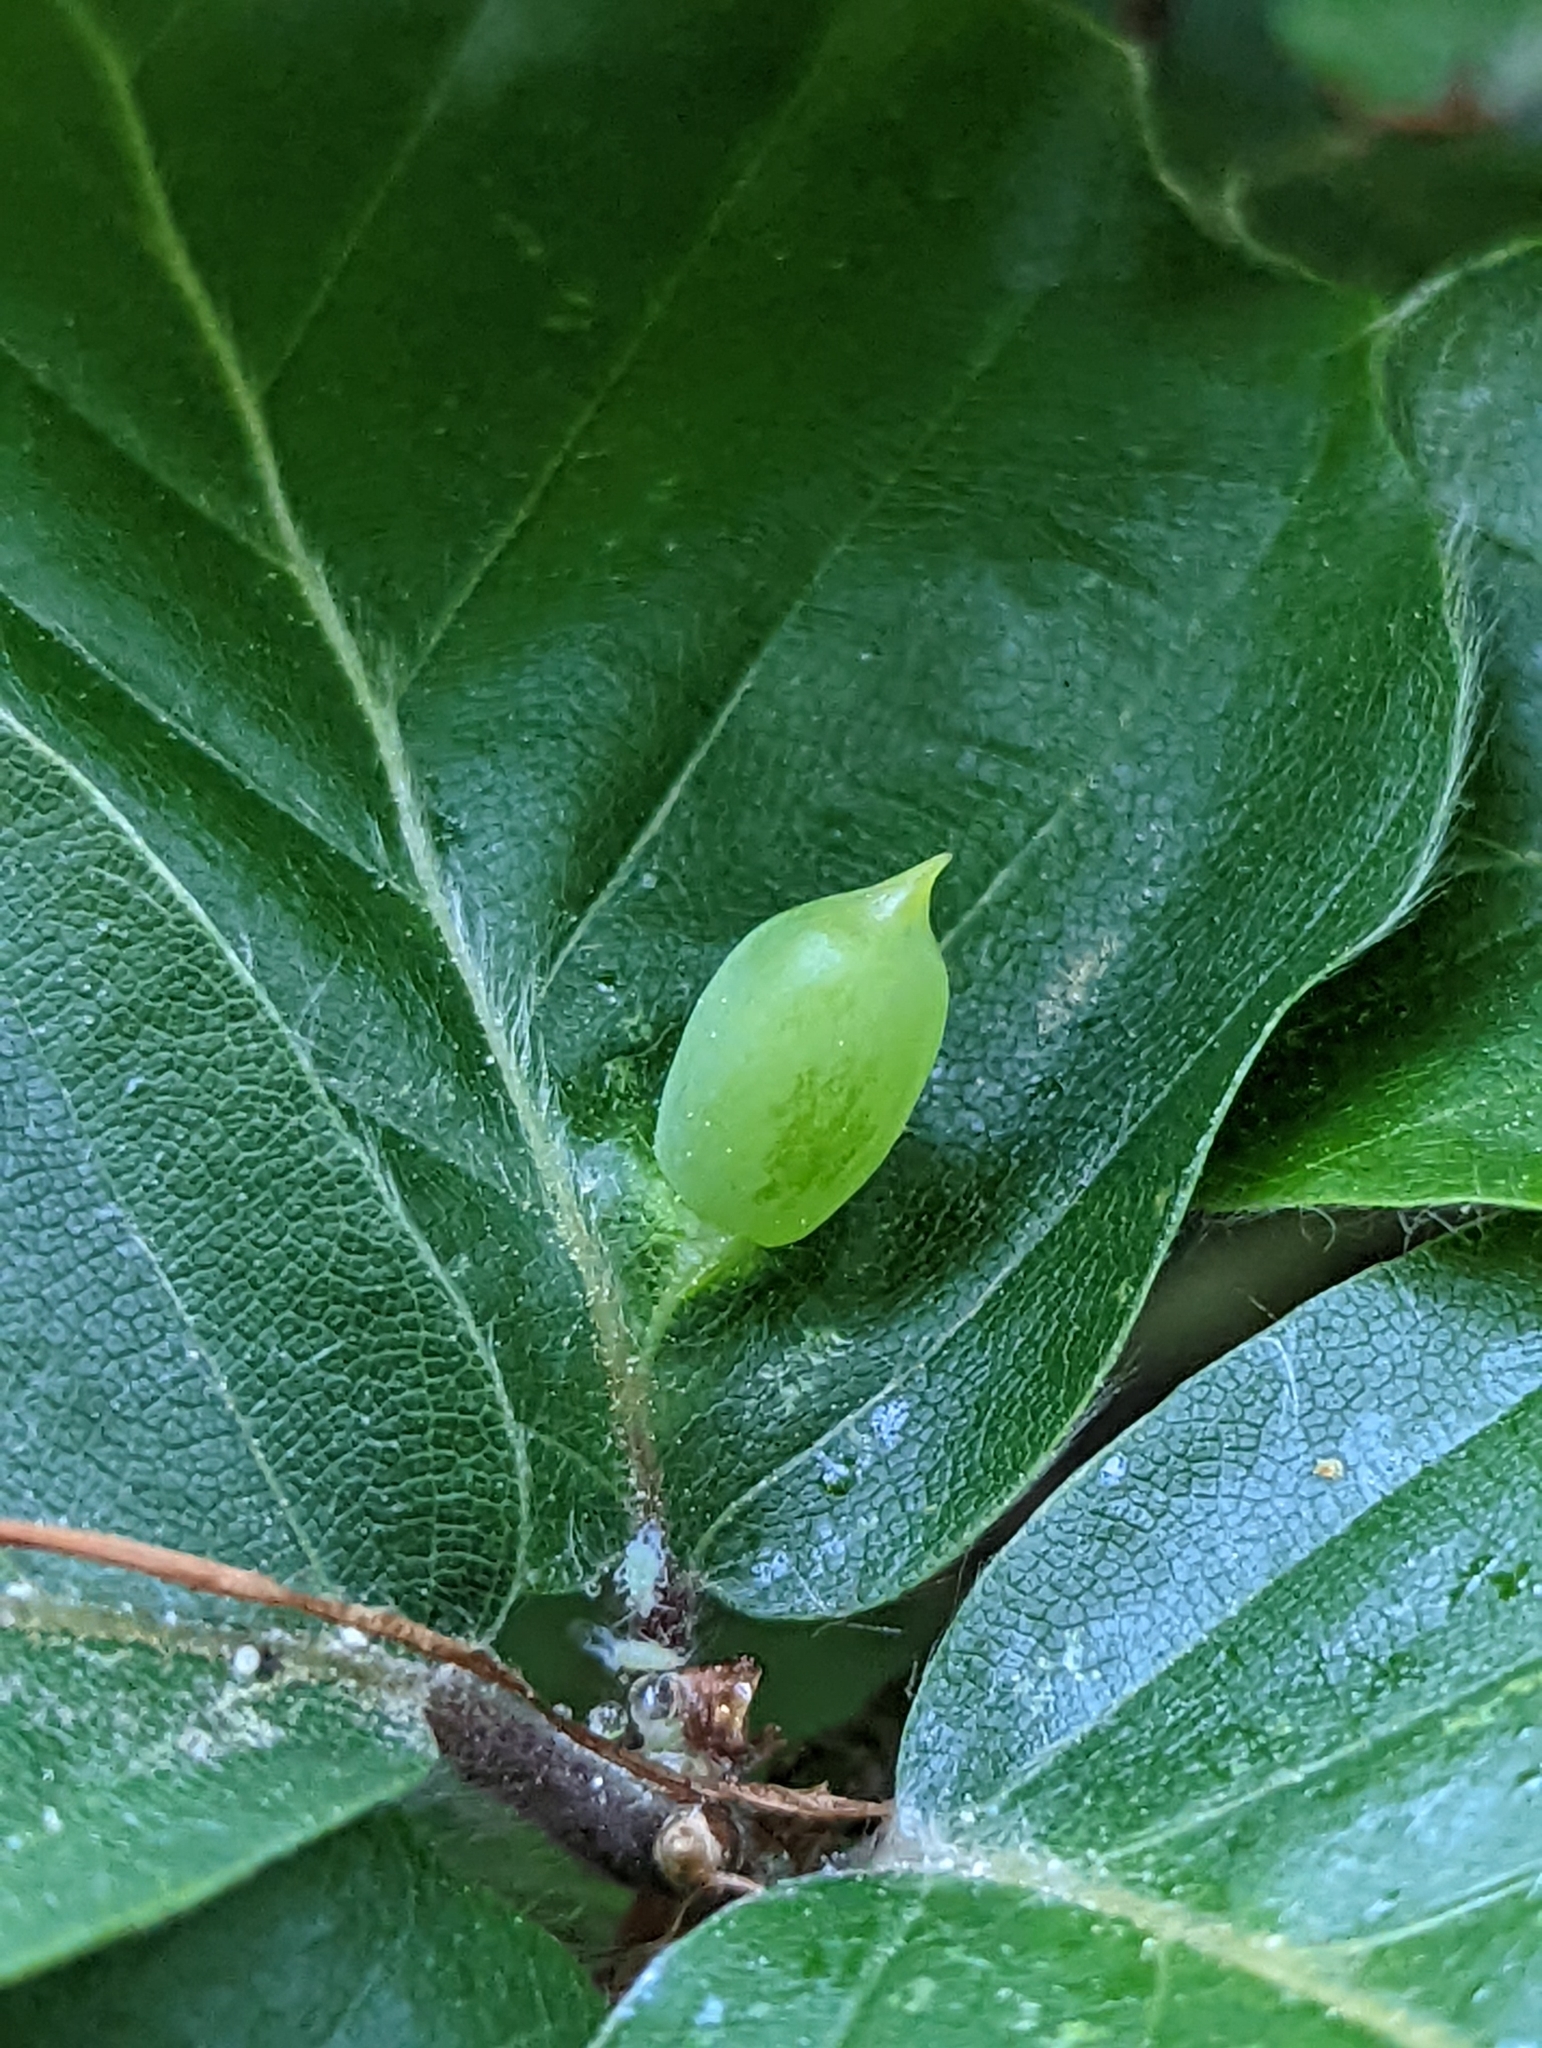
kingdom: Animalia
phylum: Arthropoda
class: Insecta
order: Diptera
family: Cecidomyiidae
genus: Mikiola
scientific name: Mikiola fagi
